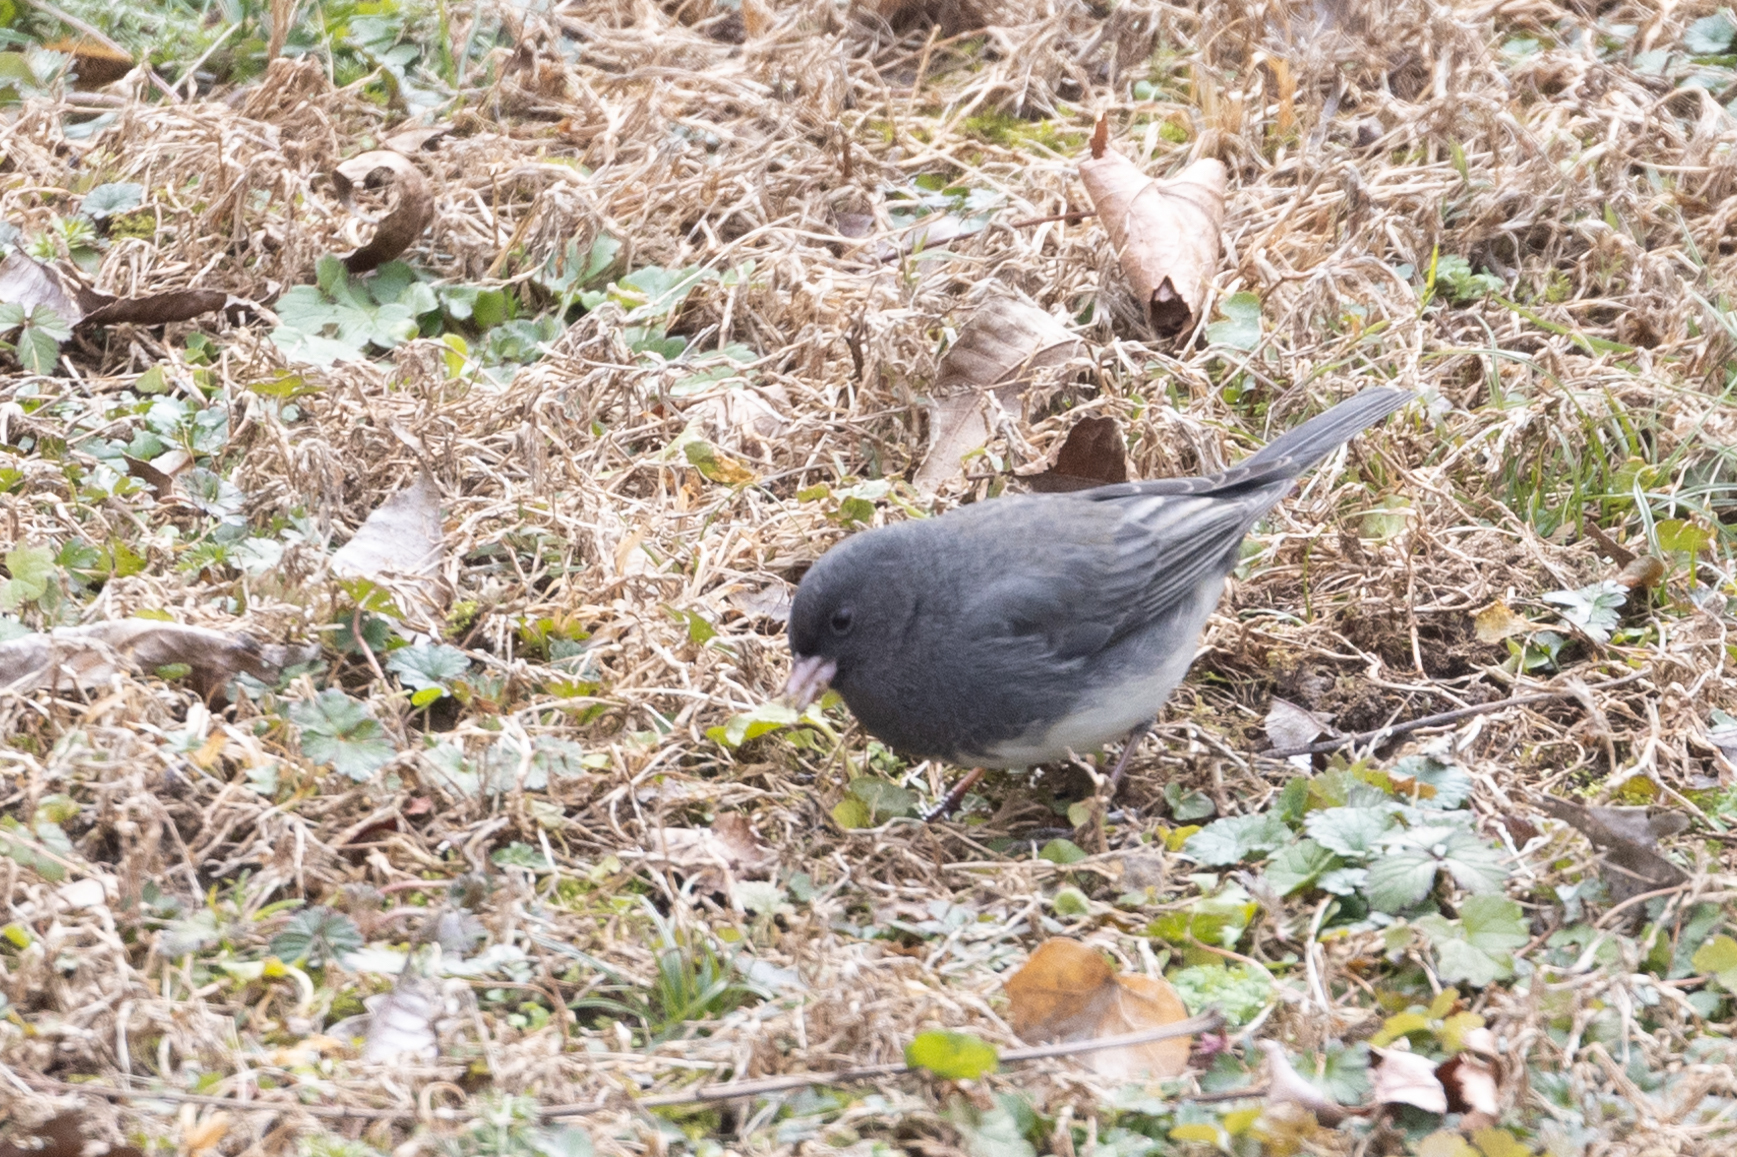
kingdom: Animalia
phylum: Chordata
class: Aves
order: Passeriformes
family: Passerellidae
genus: Junco
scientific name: Junco hyemalis
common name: Dark-eyed junco
